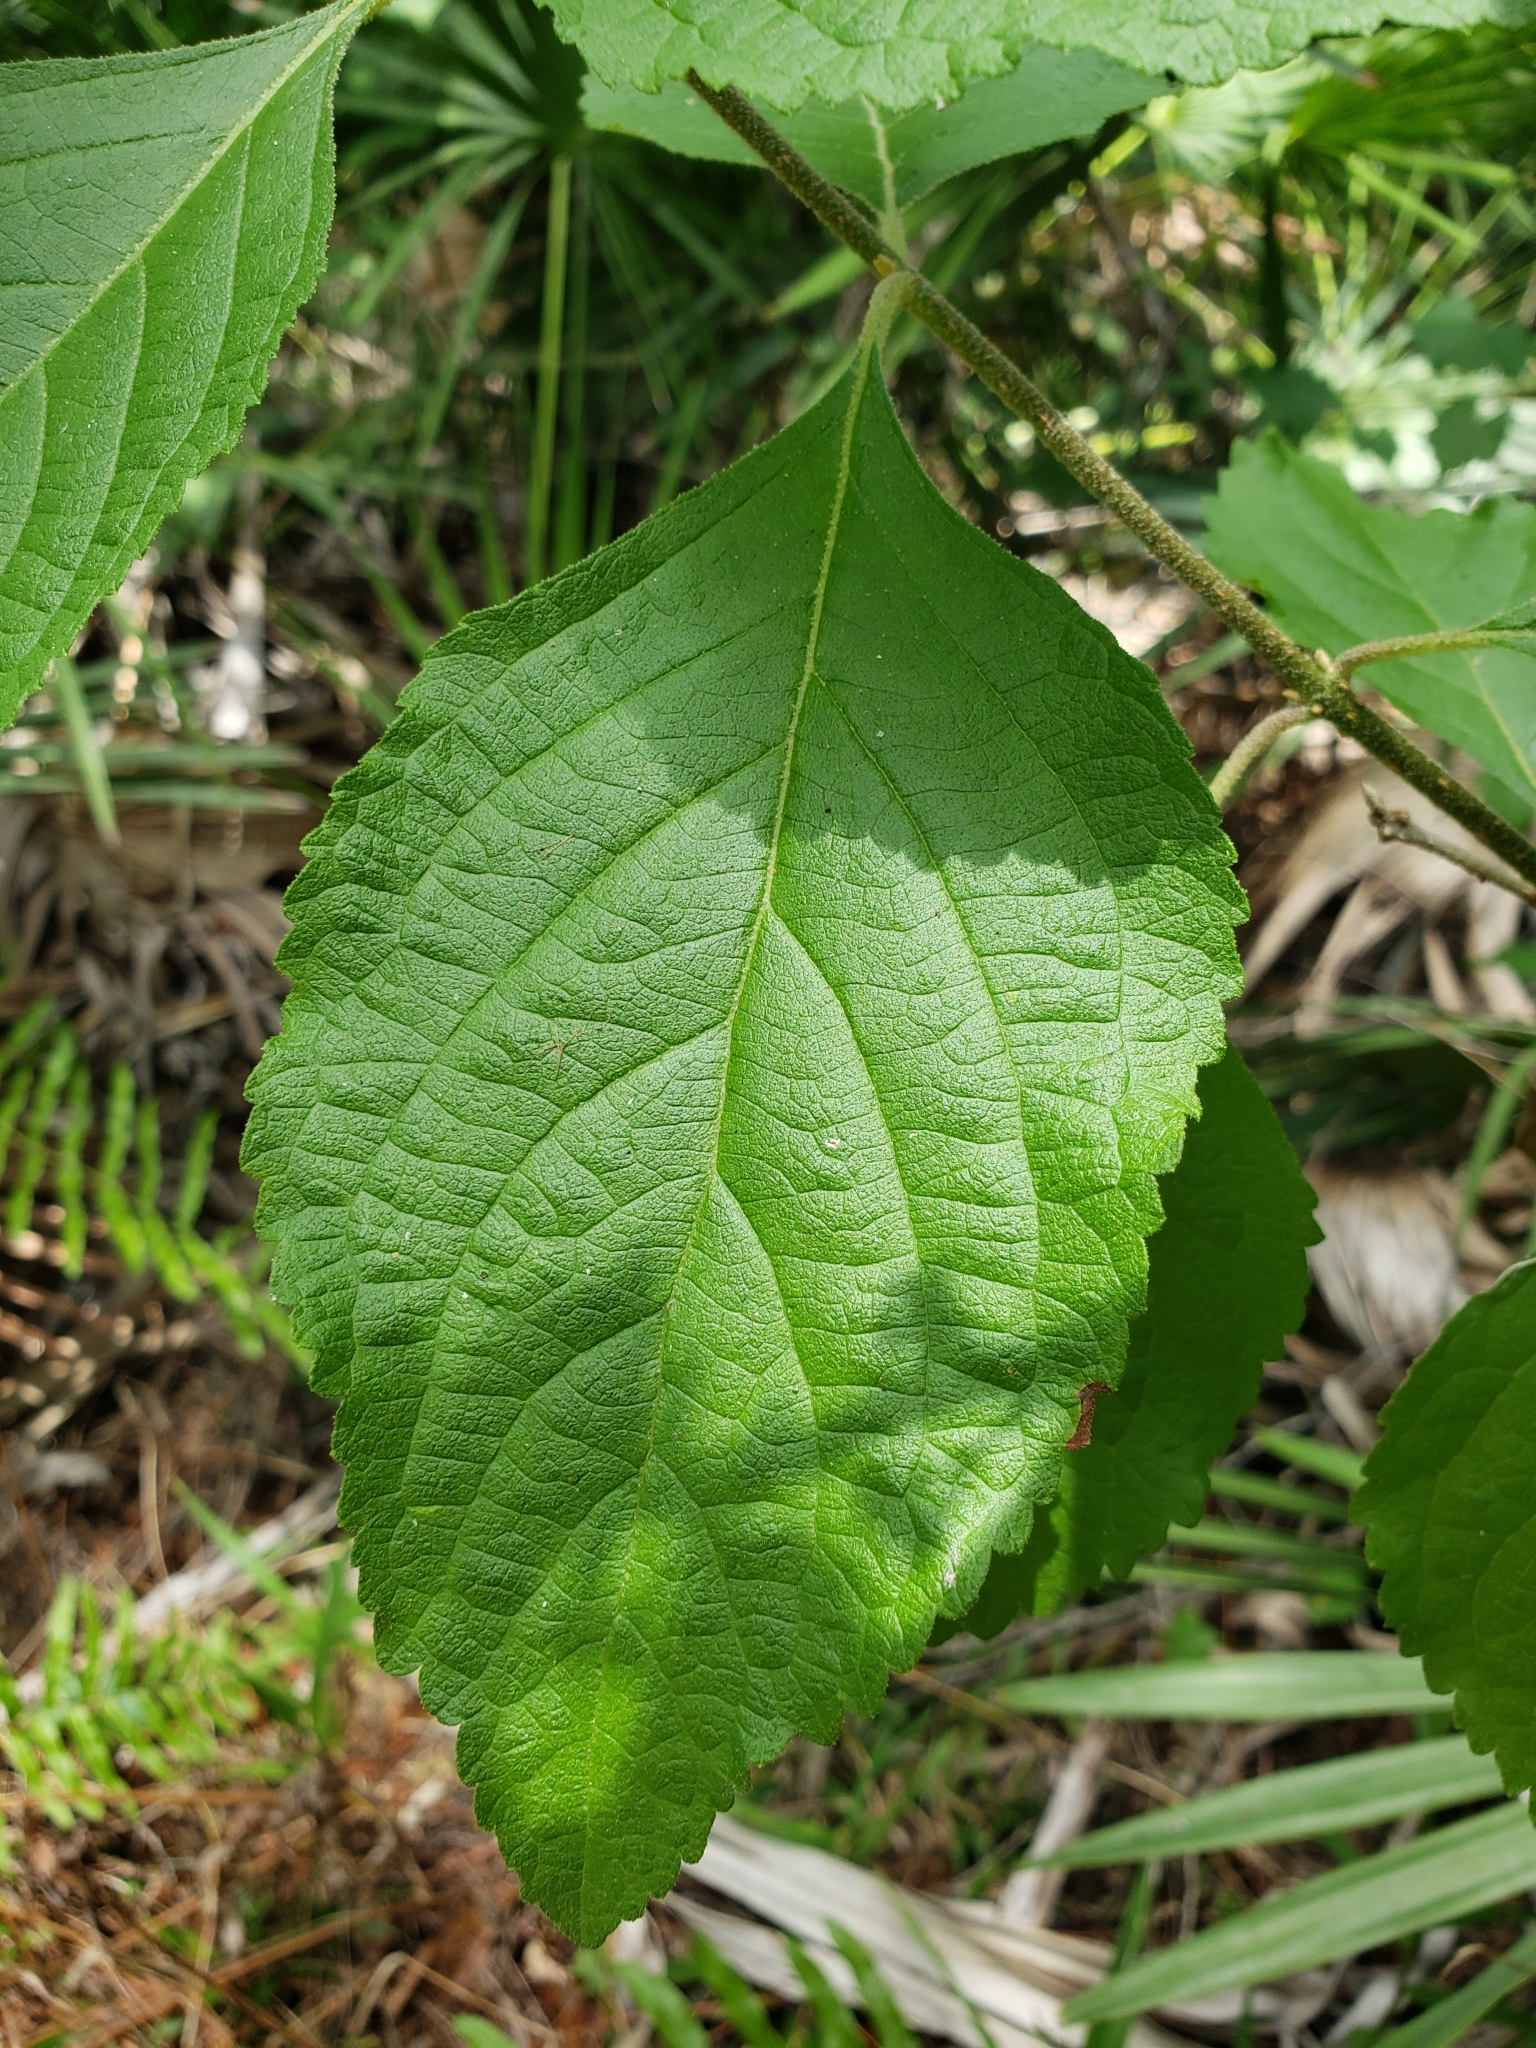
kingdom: Plantae
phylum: Tracheophyta
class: Magnoliopsida
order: Lamiales
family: Lamiaceae
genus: Callicarpa
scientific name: Callicarpa americana
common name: American beautyberry
